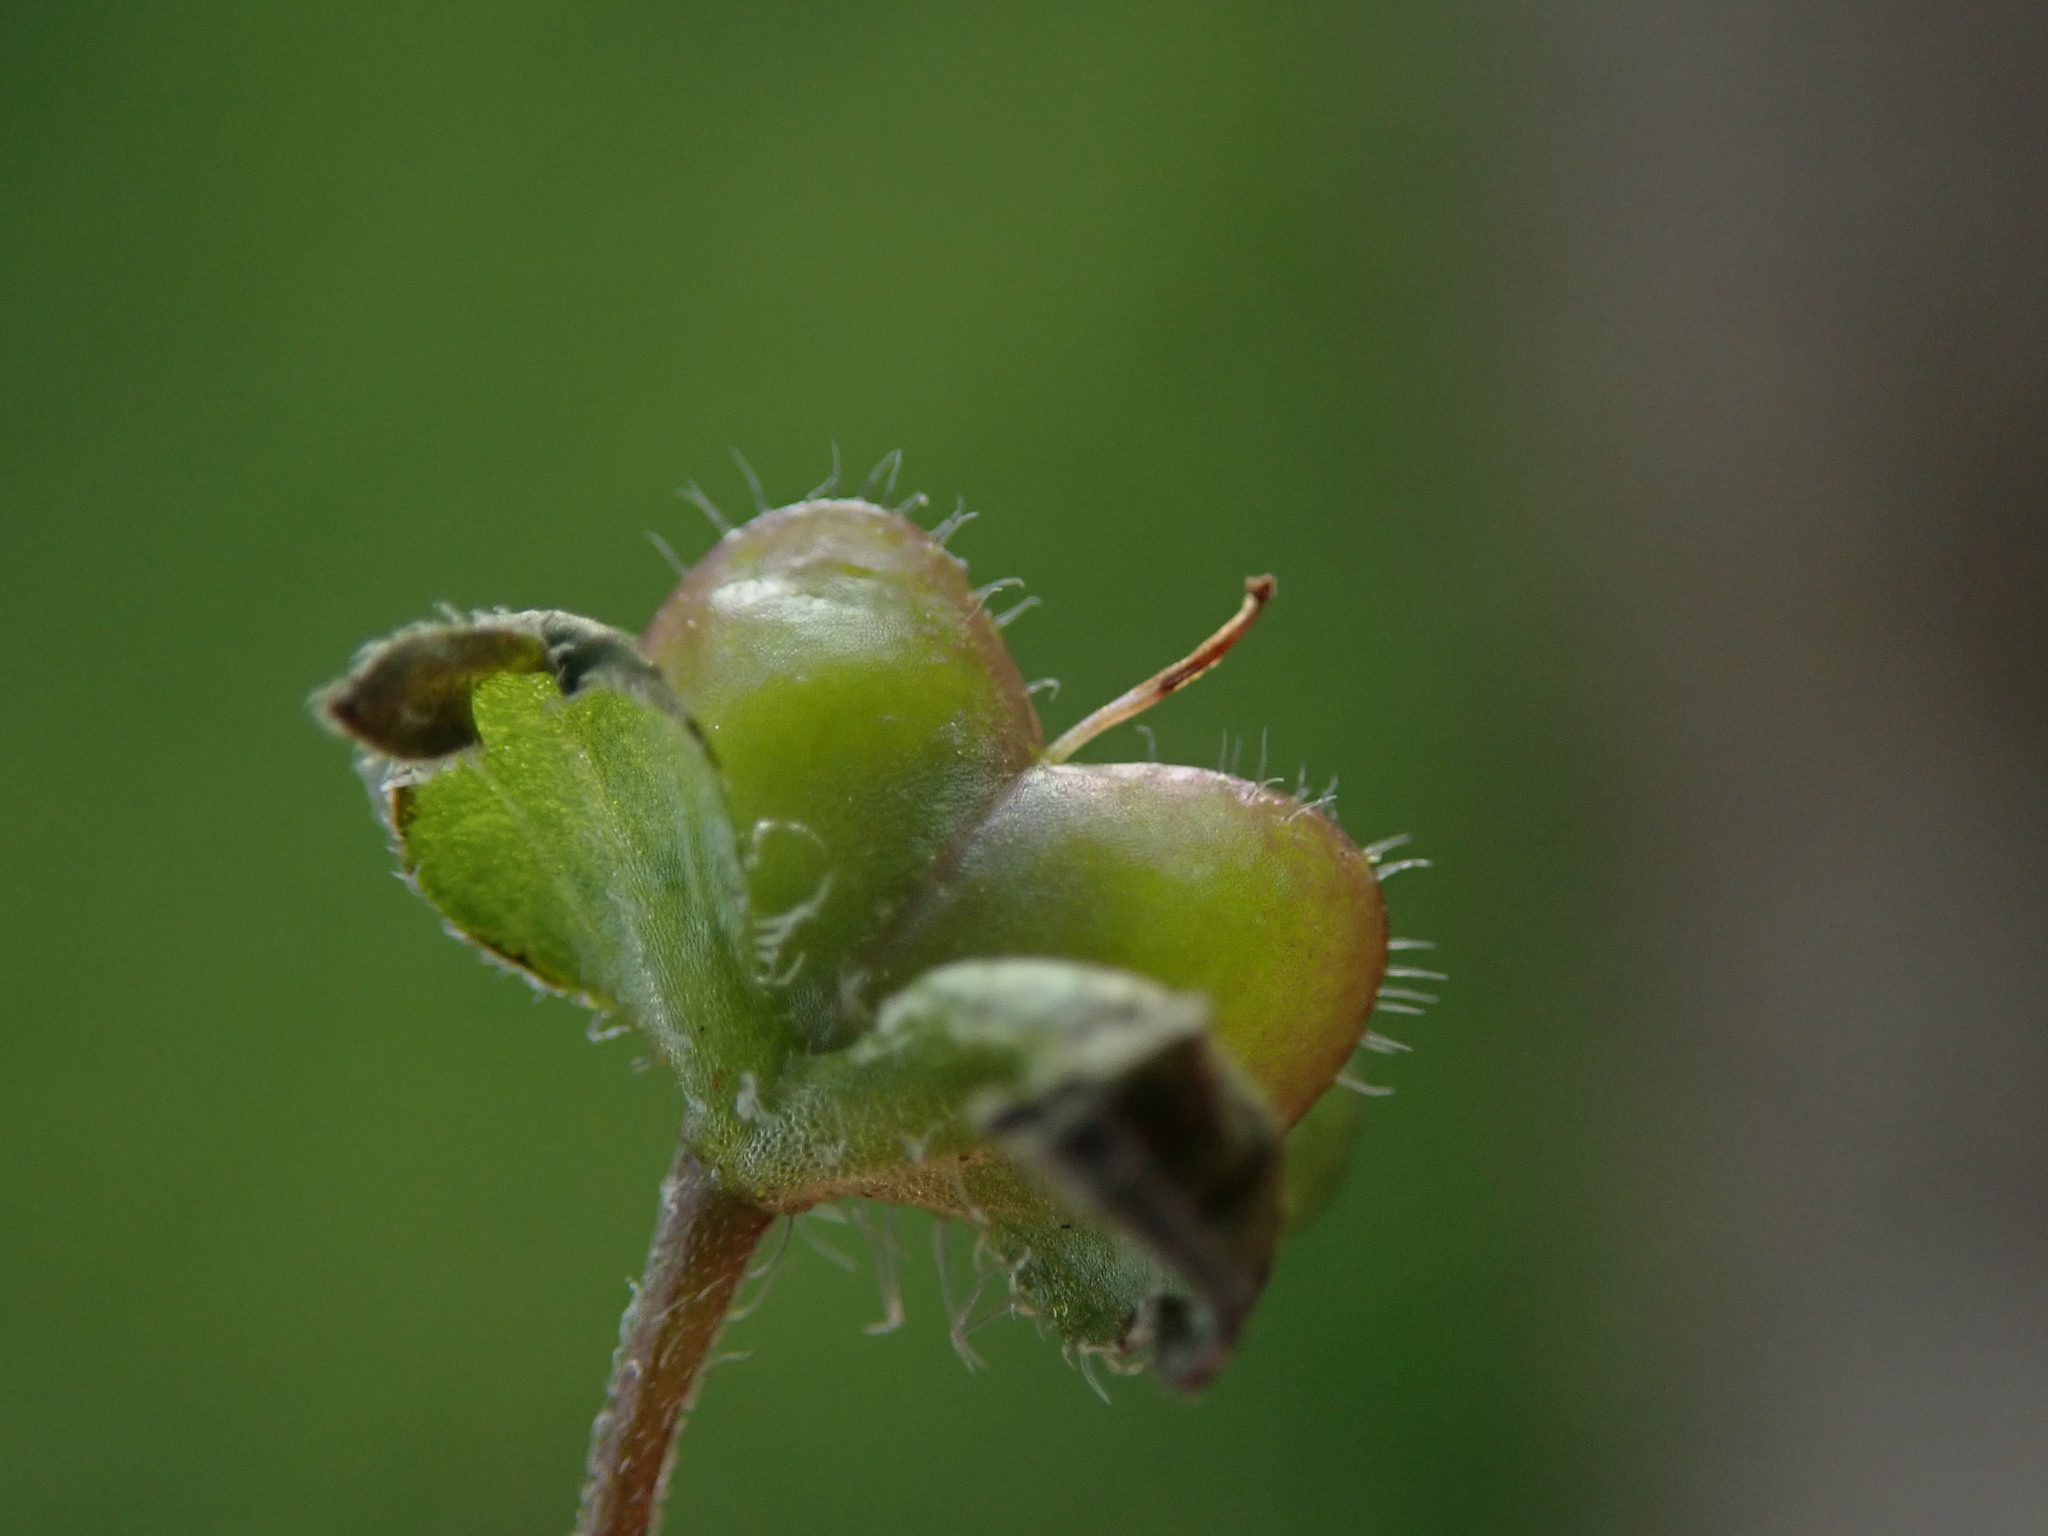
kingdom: Plantae
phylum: Tracheophyta
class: Magnoliopsida
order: Lamiales
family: Plantaginaceae
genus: Veronica
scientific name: Veronica persica
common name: Common field-speedwell
